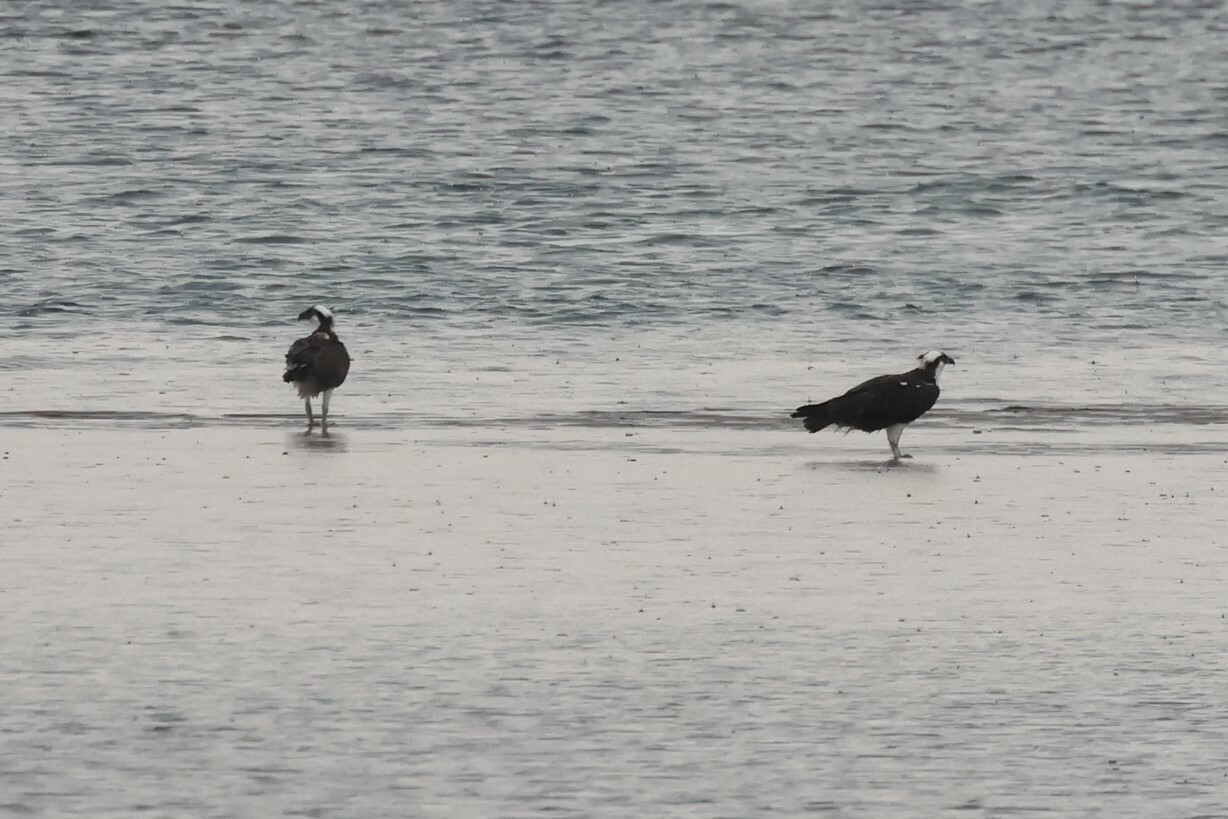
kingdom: Animalia
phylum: Chordata
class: Aves
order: Accipitriformes
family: Pandionidae
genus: Pandion
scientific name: Pandion haliaetus
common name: Osprey
